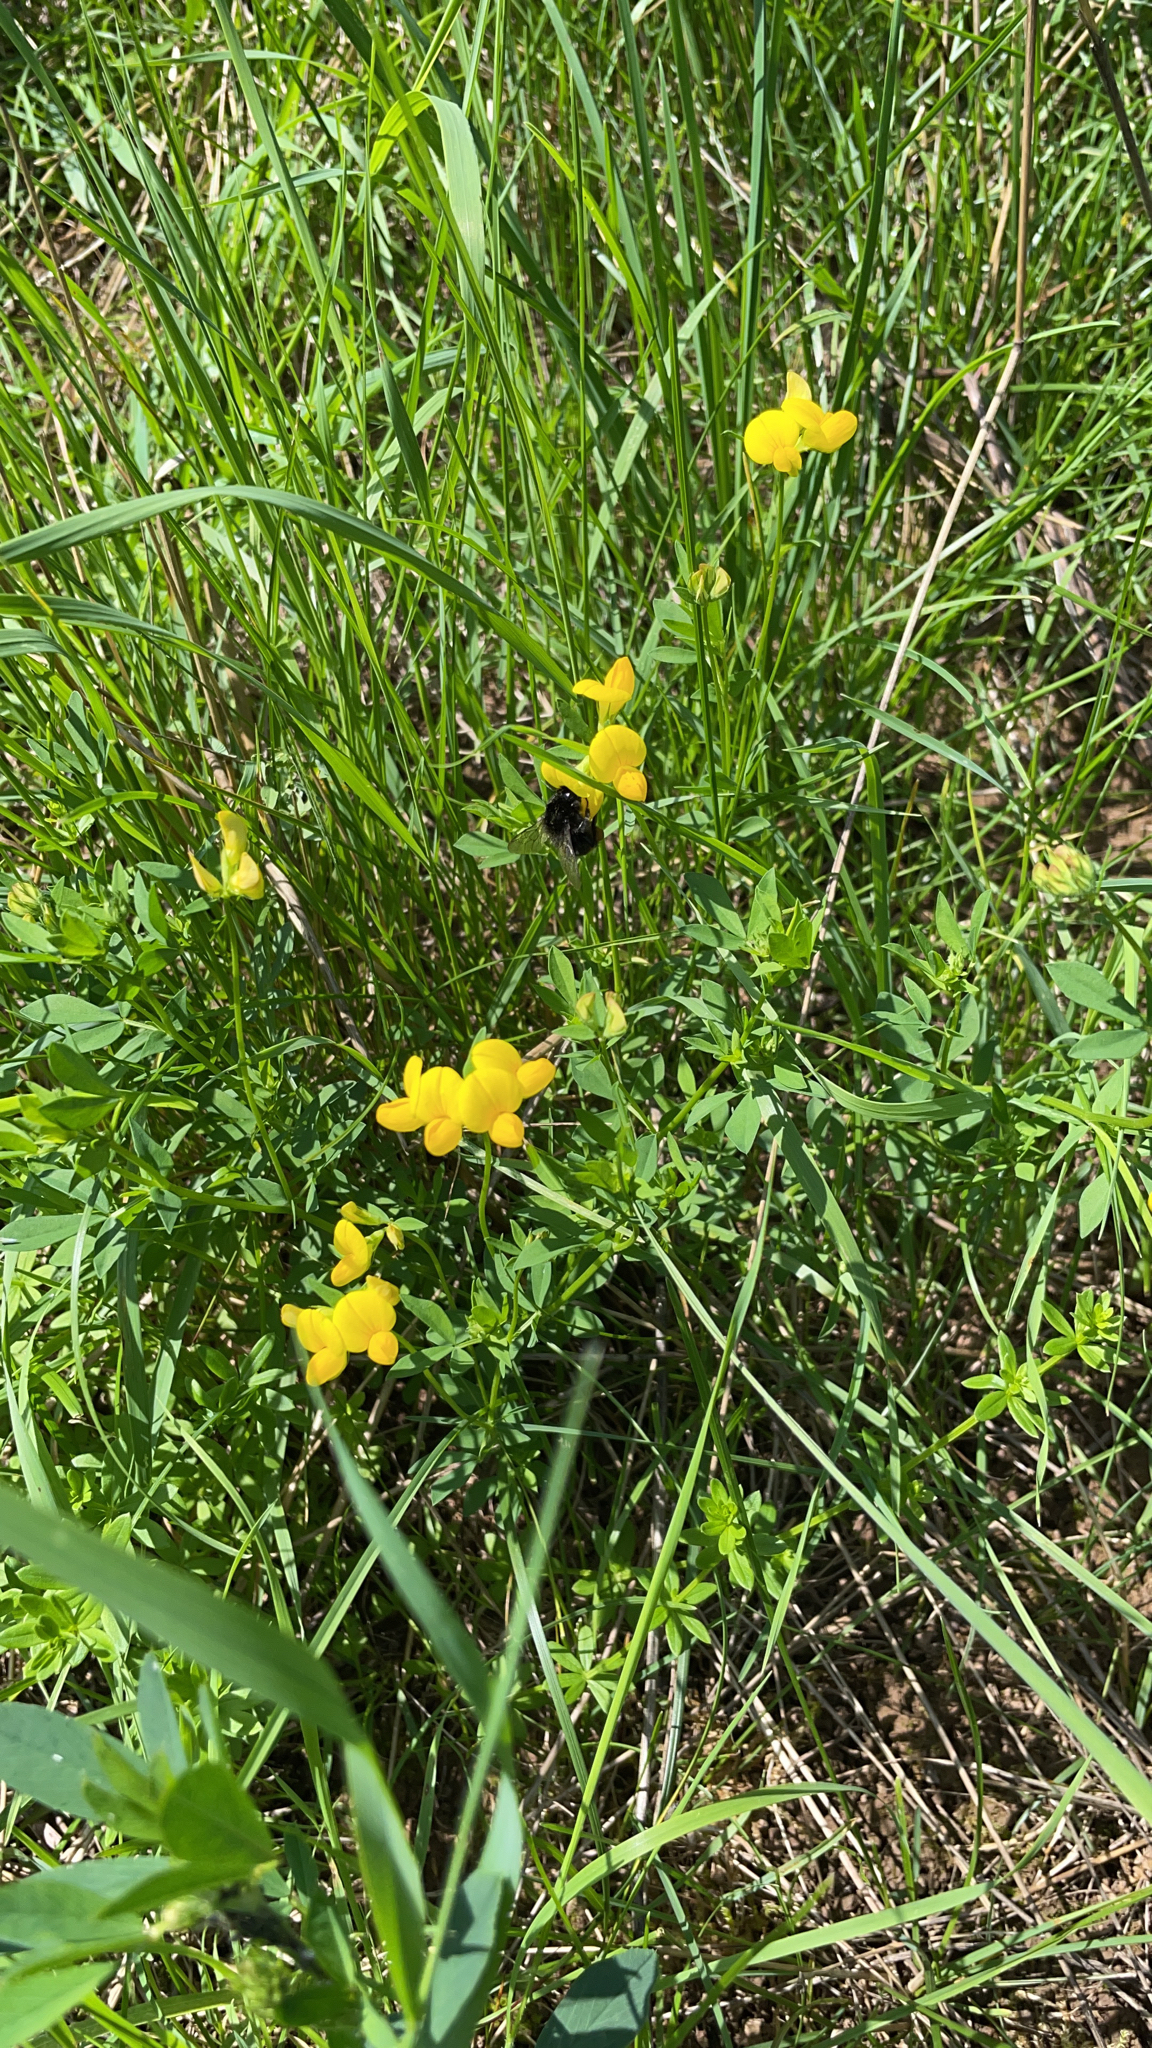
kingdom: Plantae
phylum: Tracheophyta
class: Magnoliopsida
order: Fabales
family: Fabaceae
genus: Lotus
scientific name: Lotus corniculatus
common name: Common bird's-foot-trefoil
